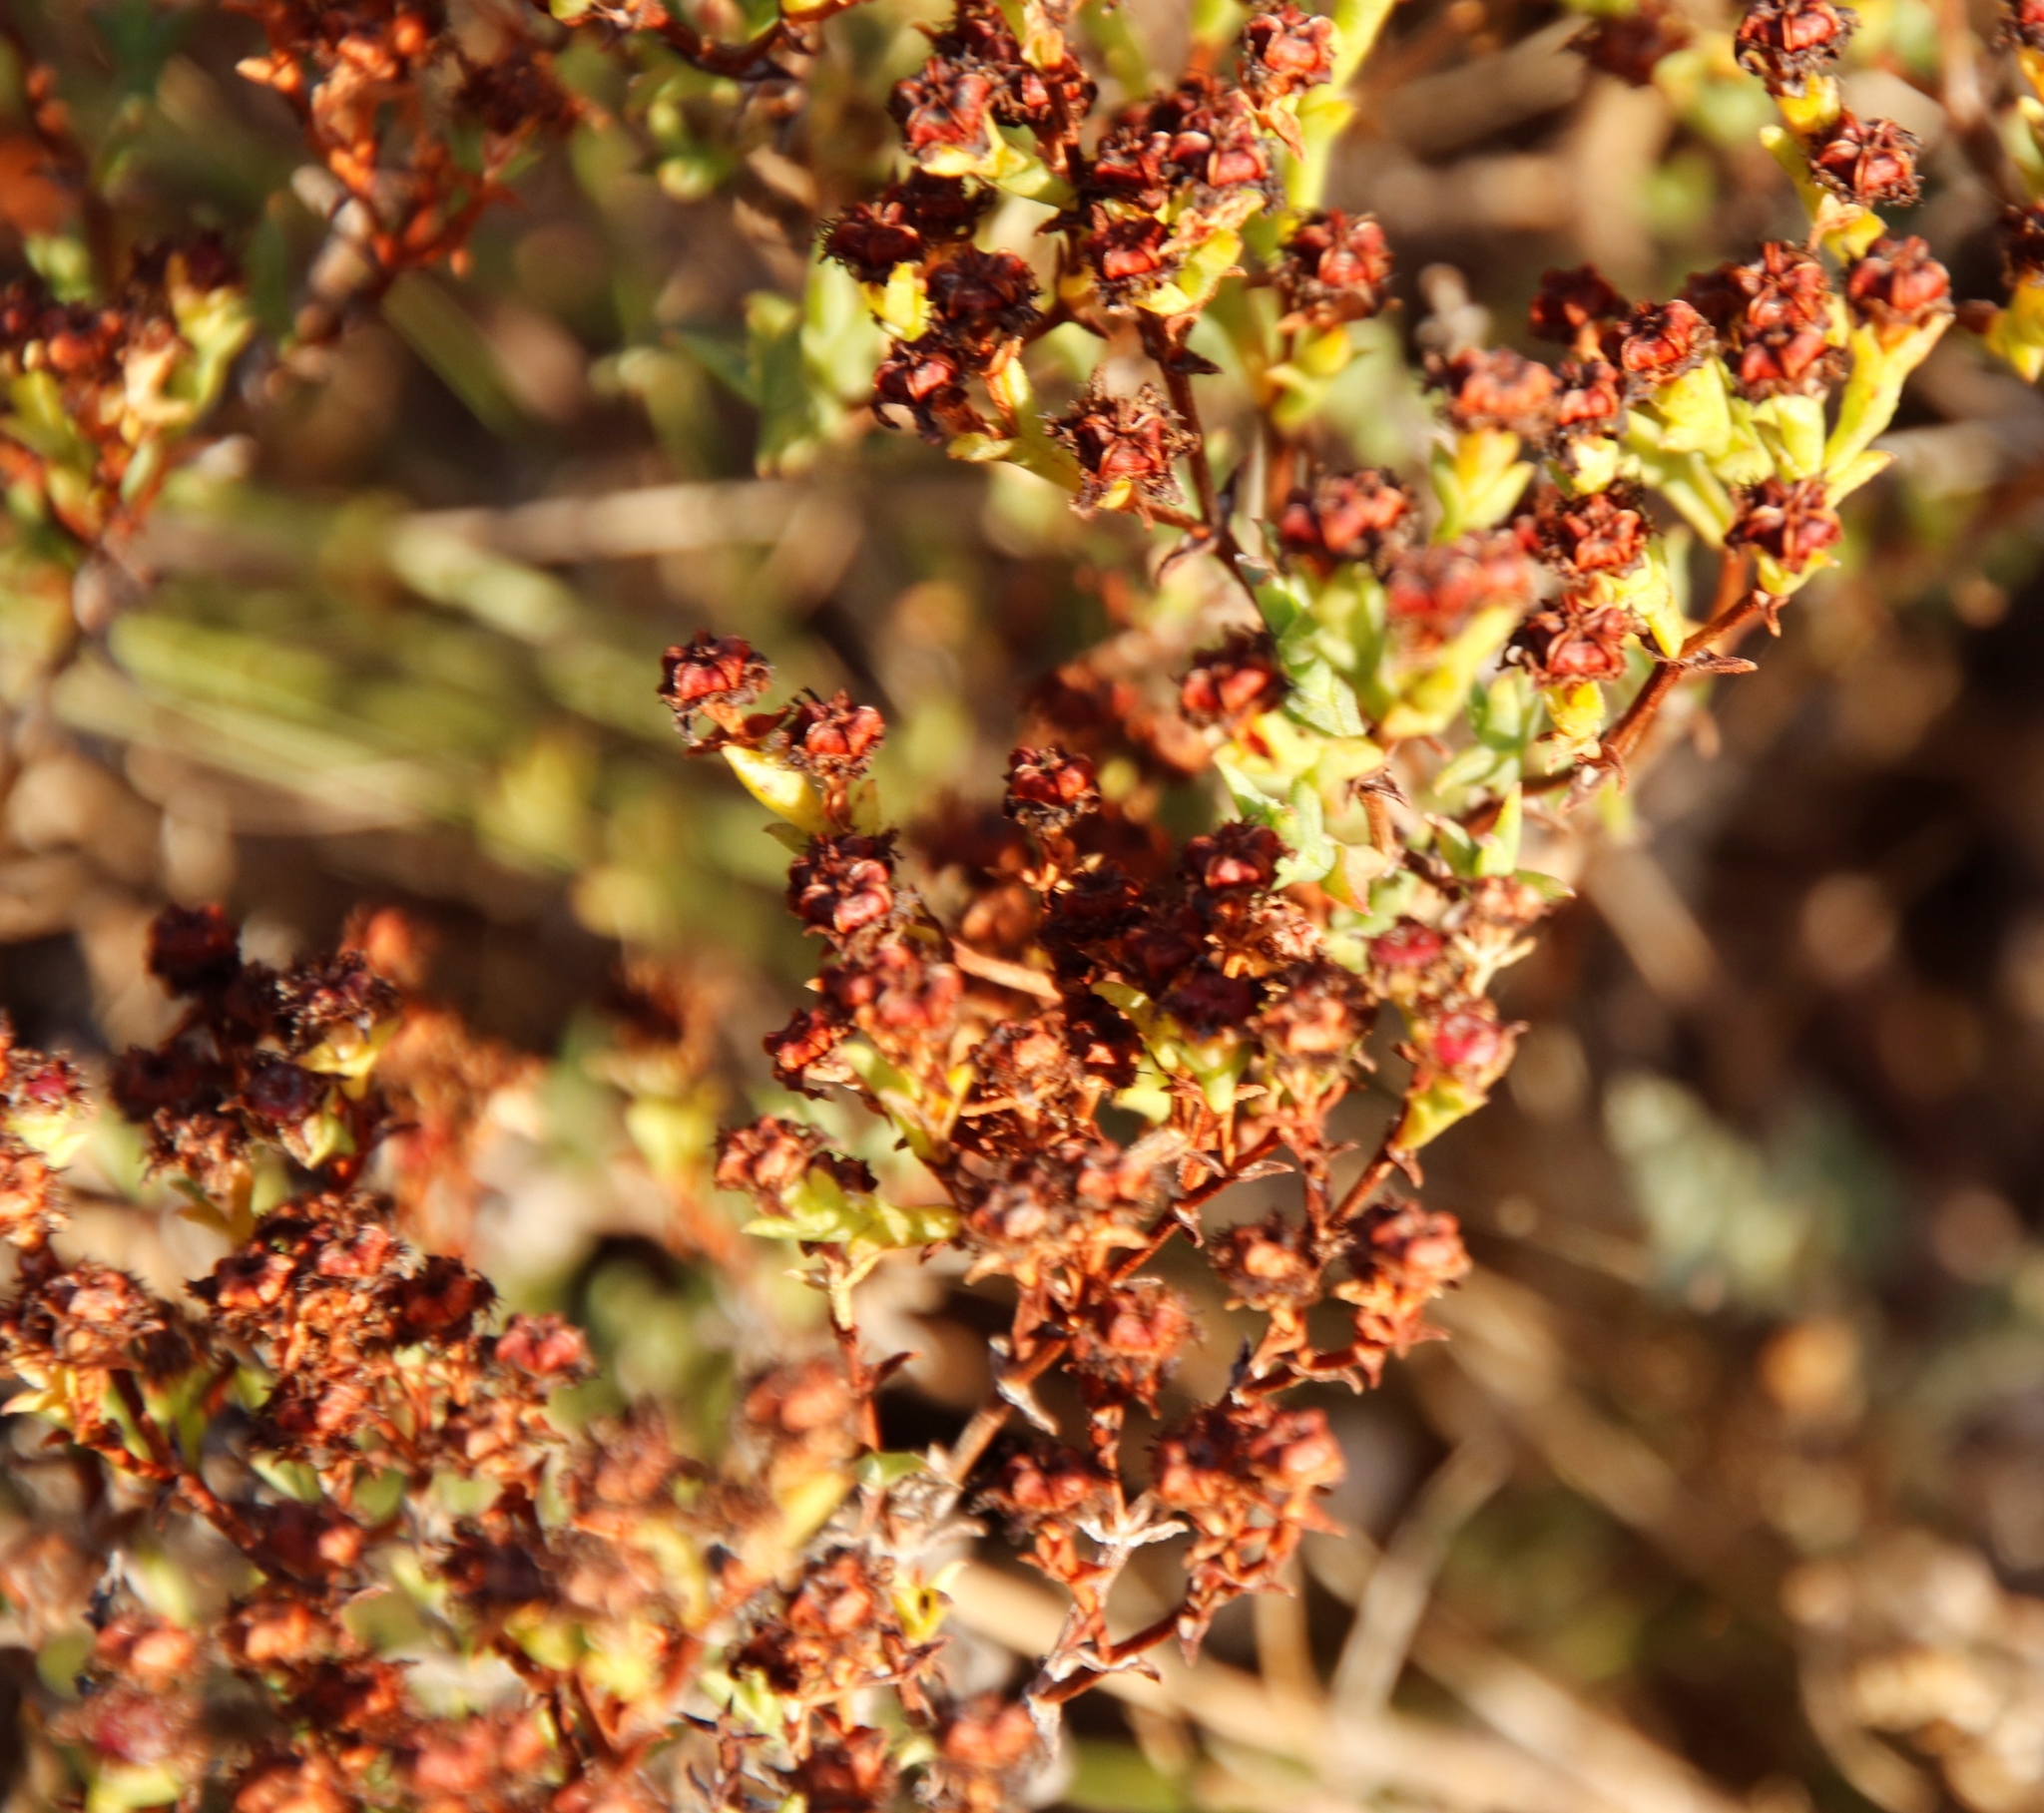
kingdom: Plantae
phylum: Tracheophyta
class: Magnoliopsida
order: Caryophyllales
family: Aizoaceae
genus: Ruschia
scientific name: Ruschia tenella
